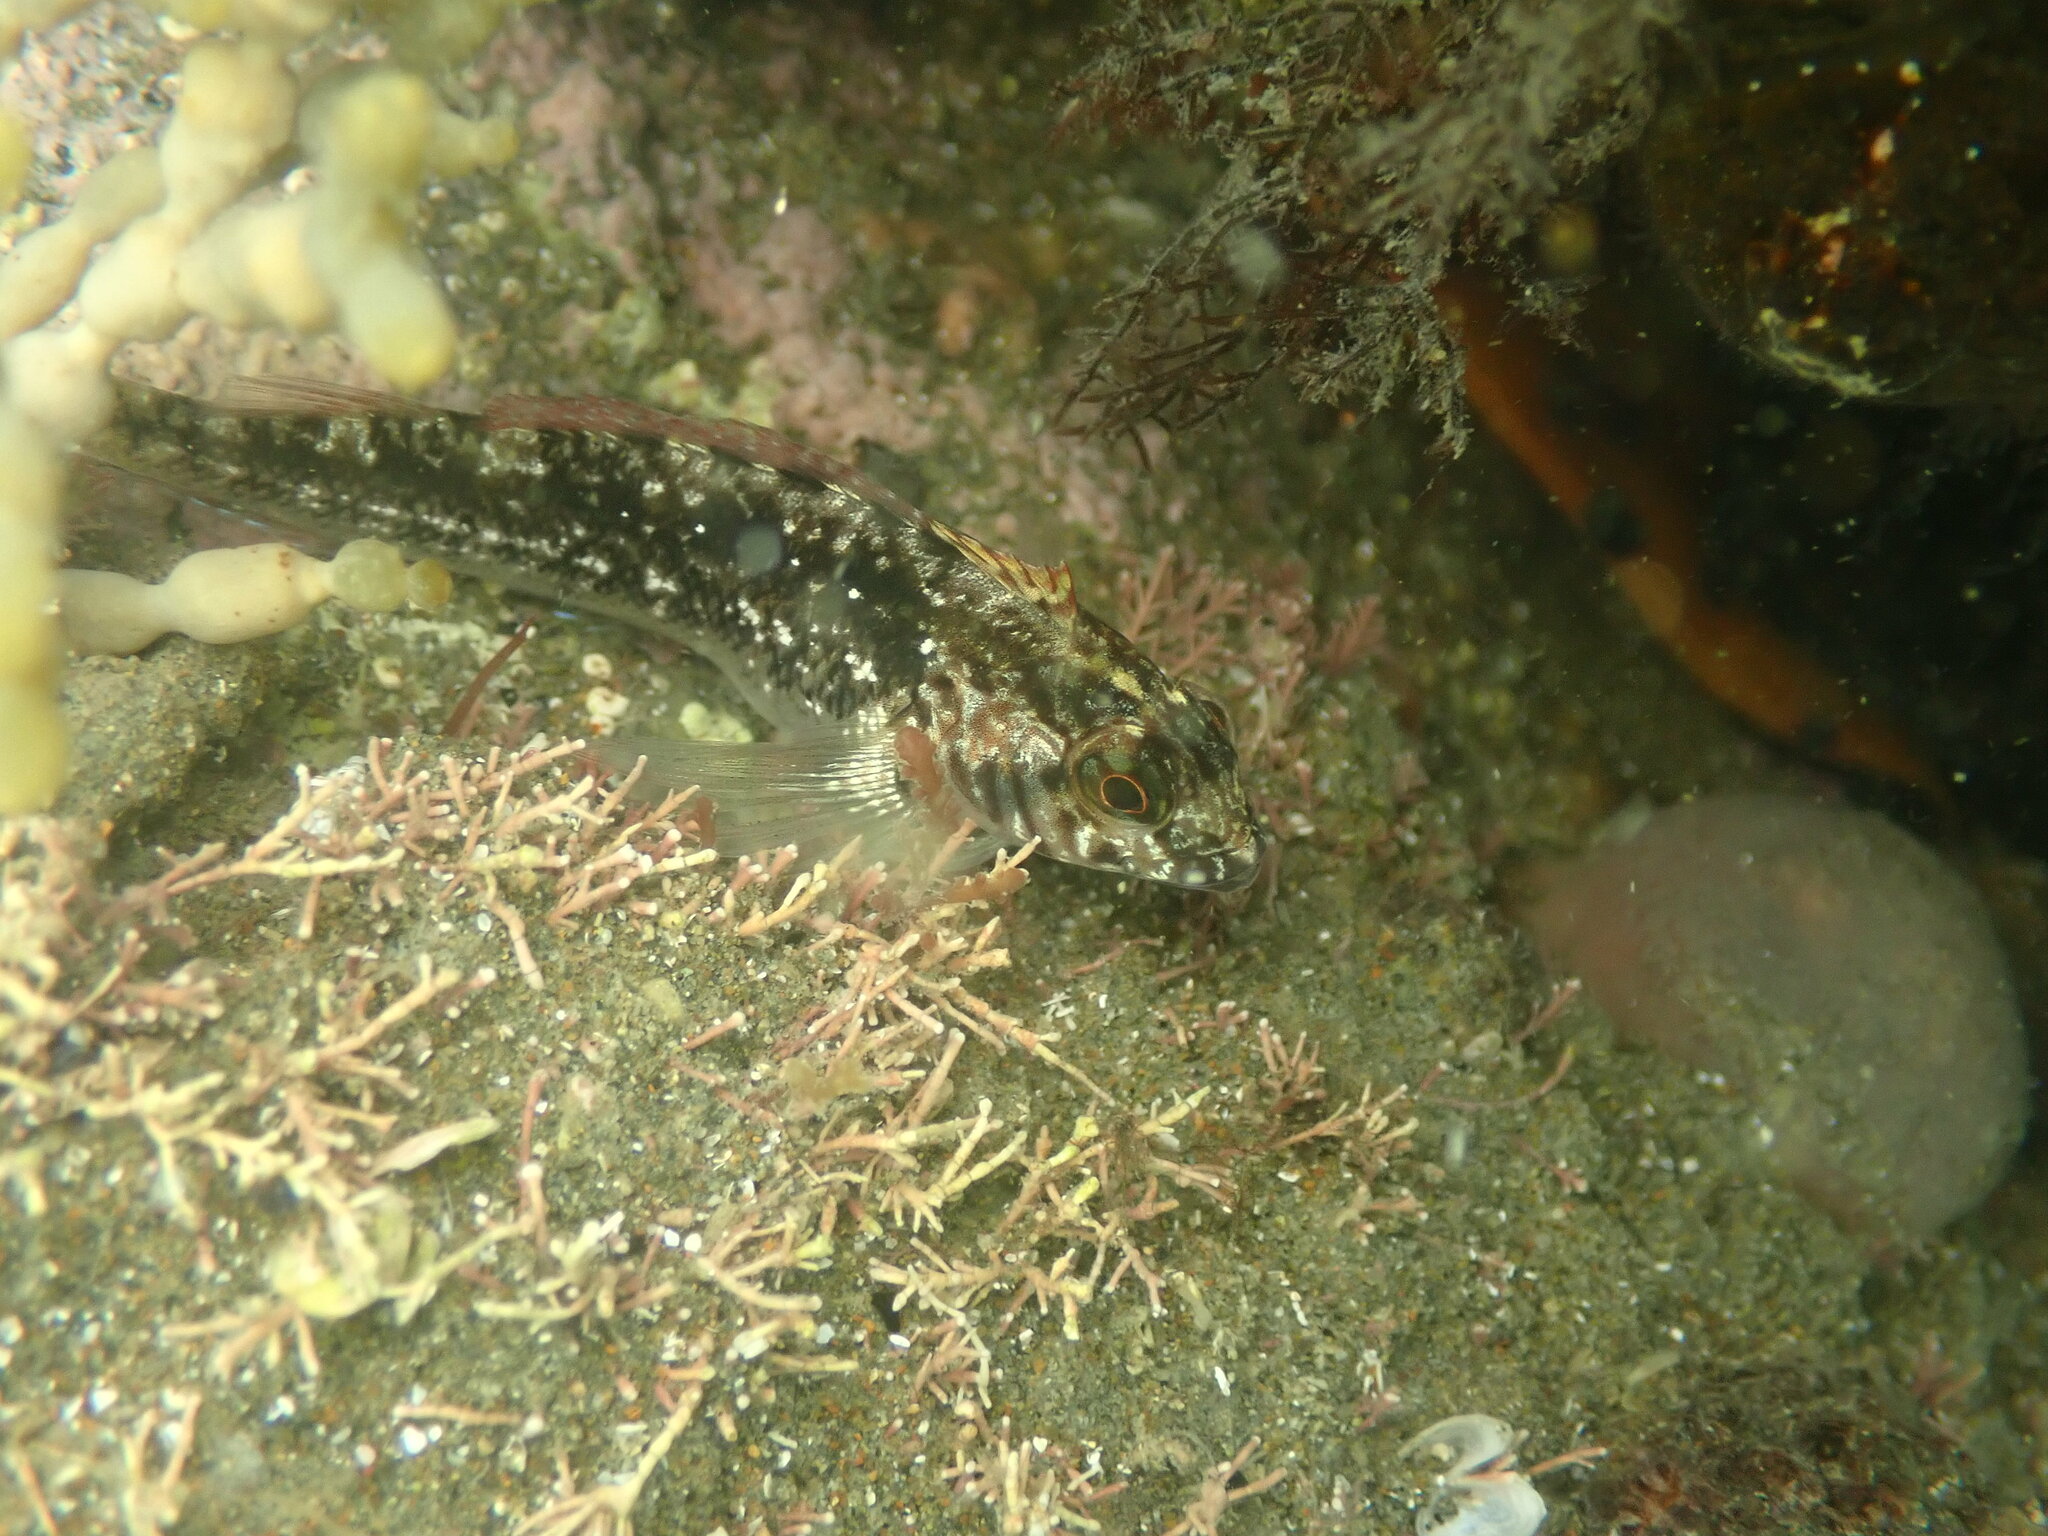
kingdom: Animalia
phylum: Chordata
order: Perciformes
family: Tripterygiidae
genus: Forsterygion
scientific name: Forsterygion lapillum
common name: Common triplefin
